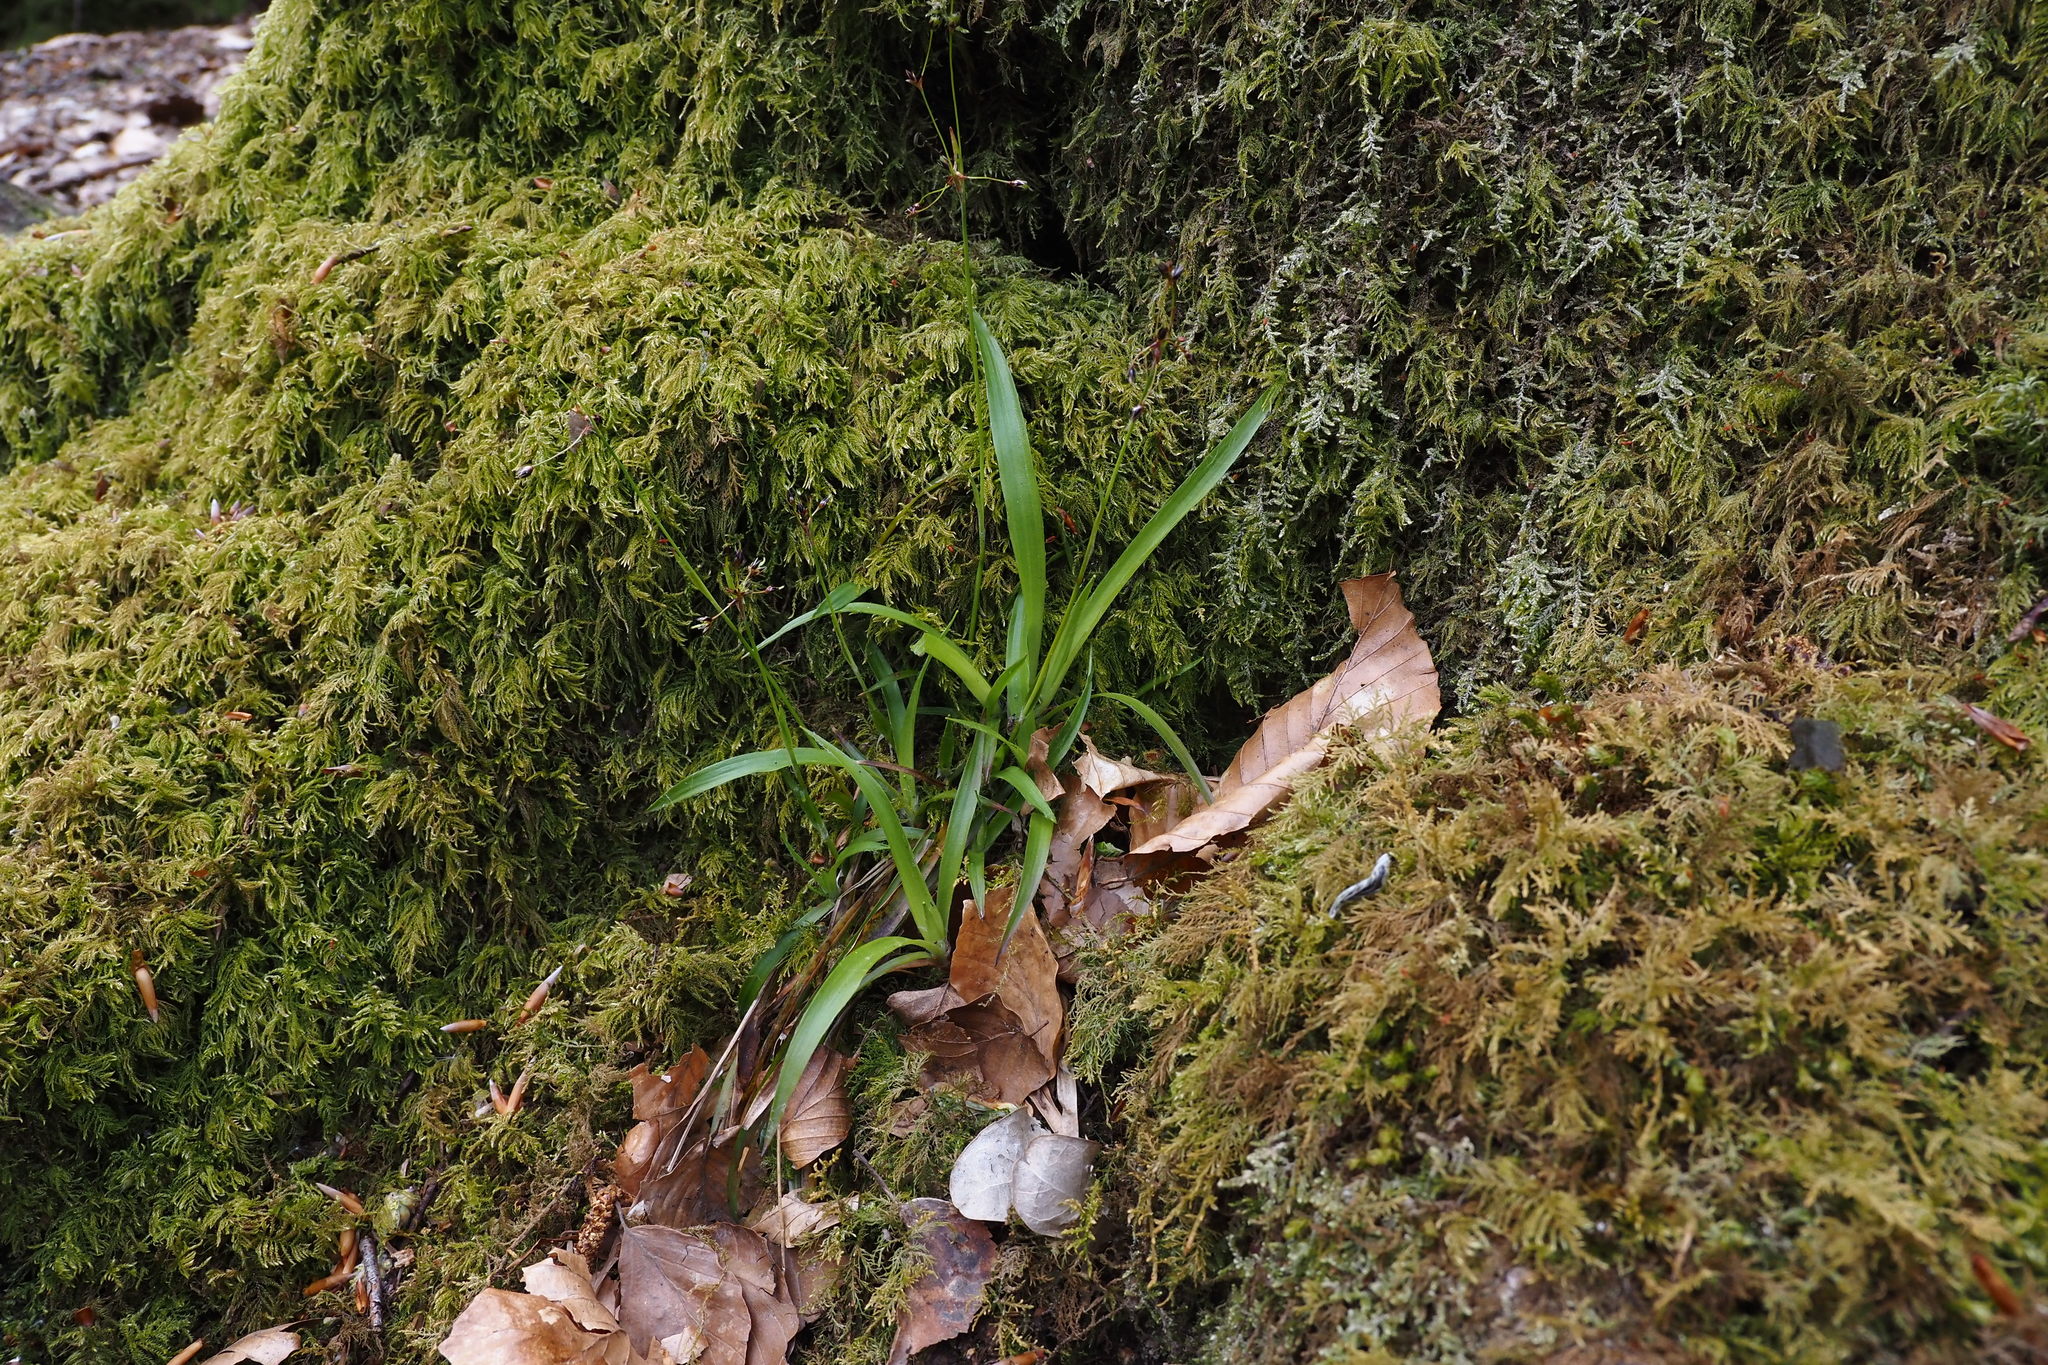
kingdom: Plantae
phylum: Tracheophyta
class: Liliopsida
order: Poales
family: Juncaceae
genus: Luzula
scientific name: Luzula pilosa
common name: Hairy wood-rush
